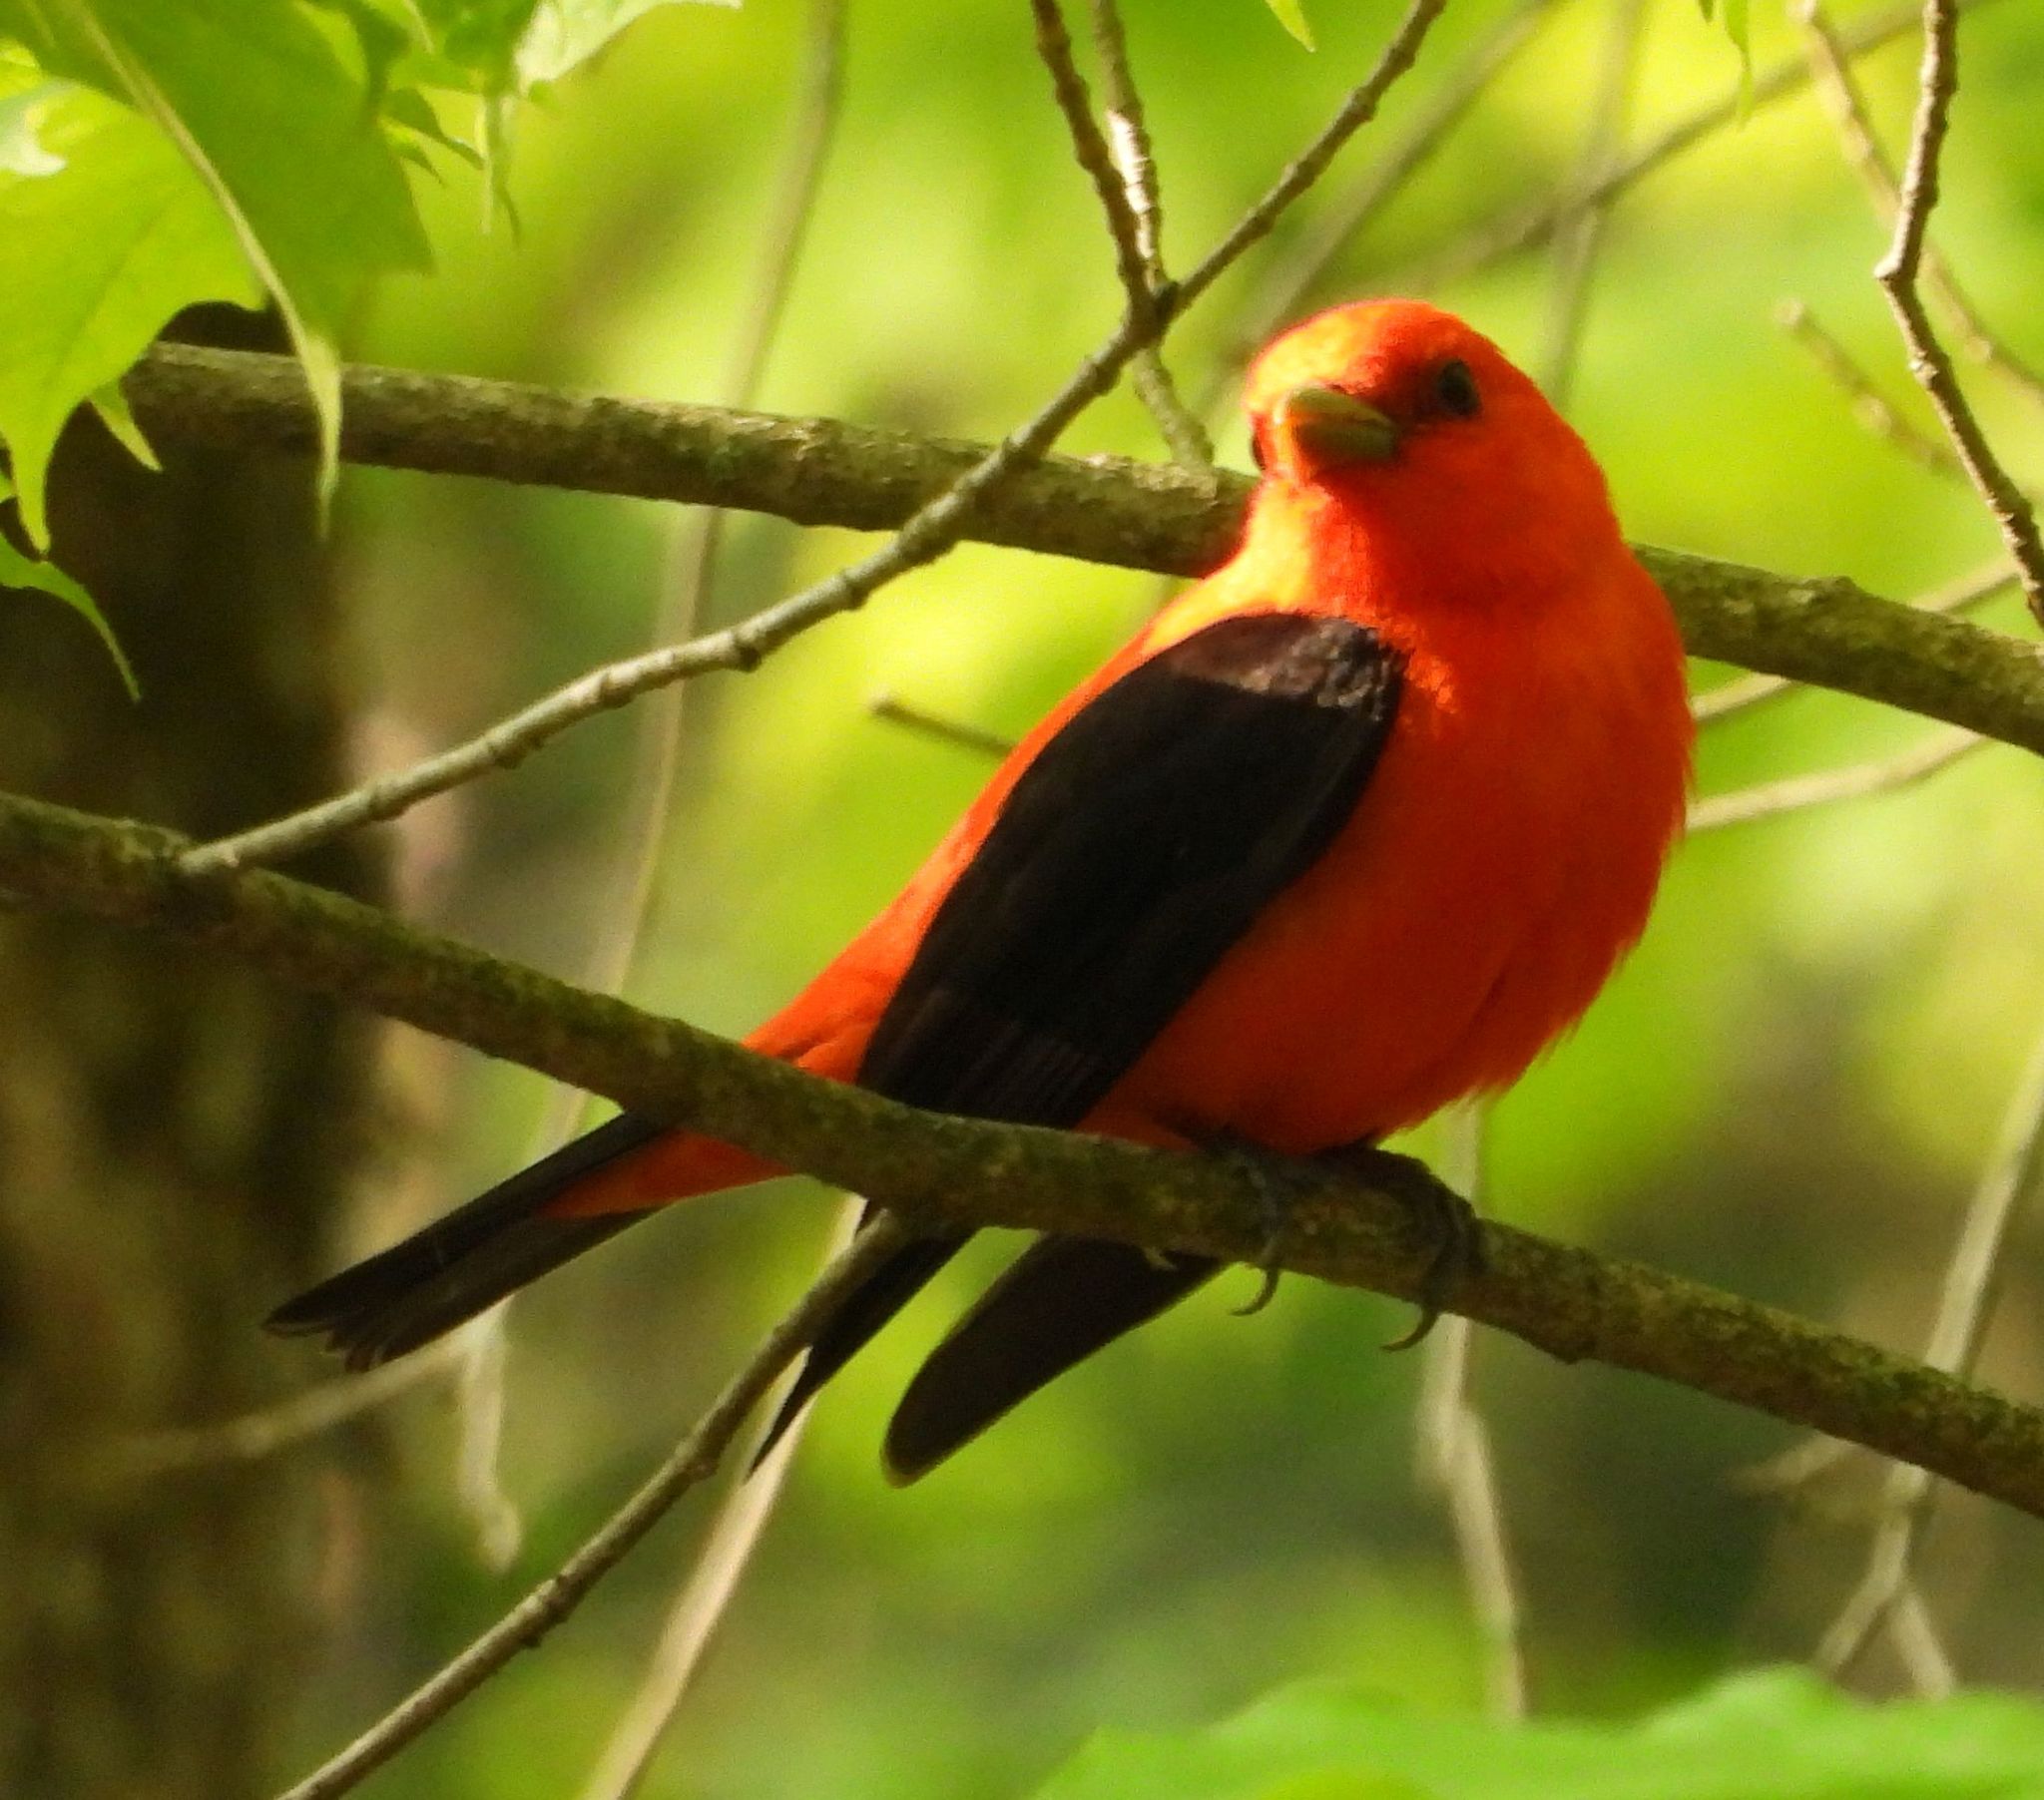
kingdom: Animalia
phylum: Chordata
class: Aves
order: Passeriformes
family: Cardinalidae
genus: Piranga
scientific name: Piranga olivacea
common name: Scarlet tanager
